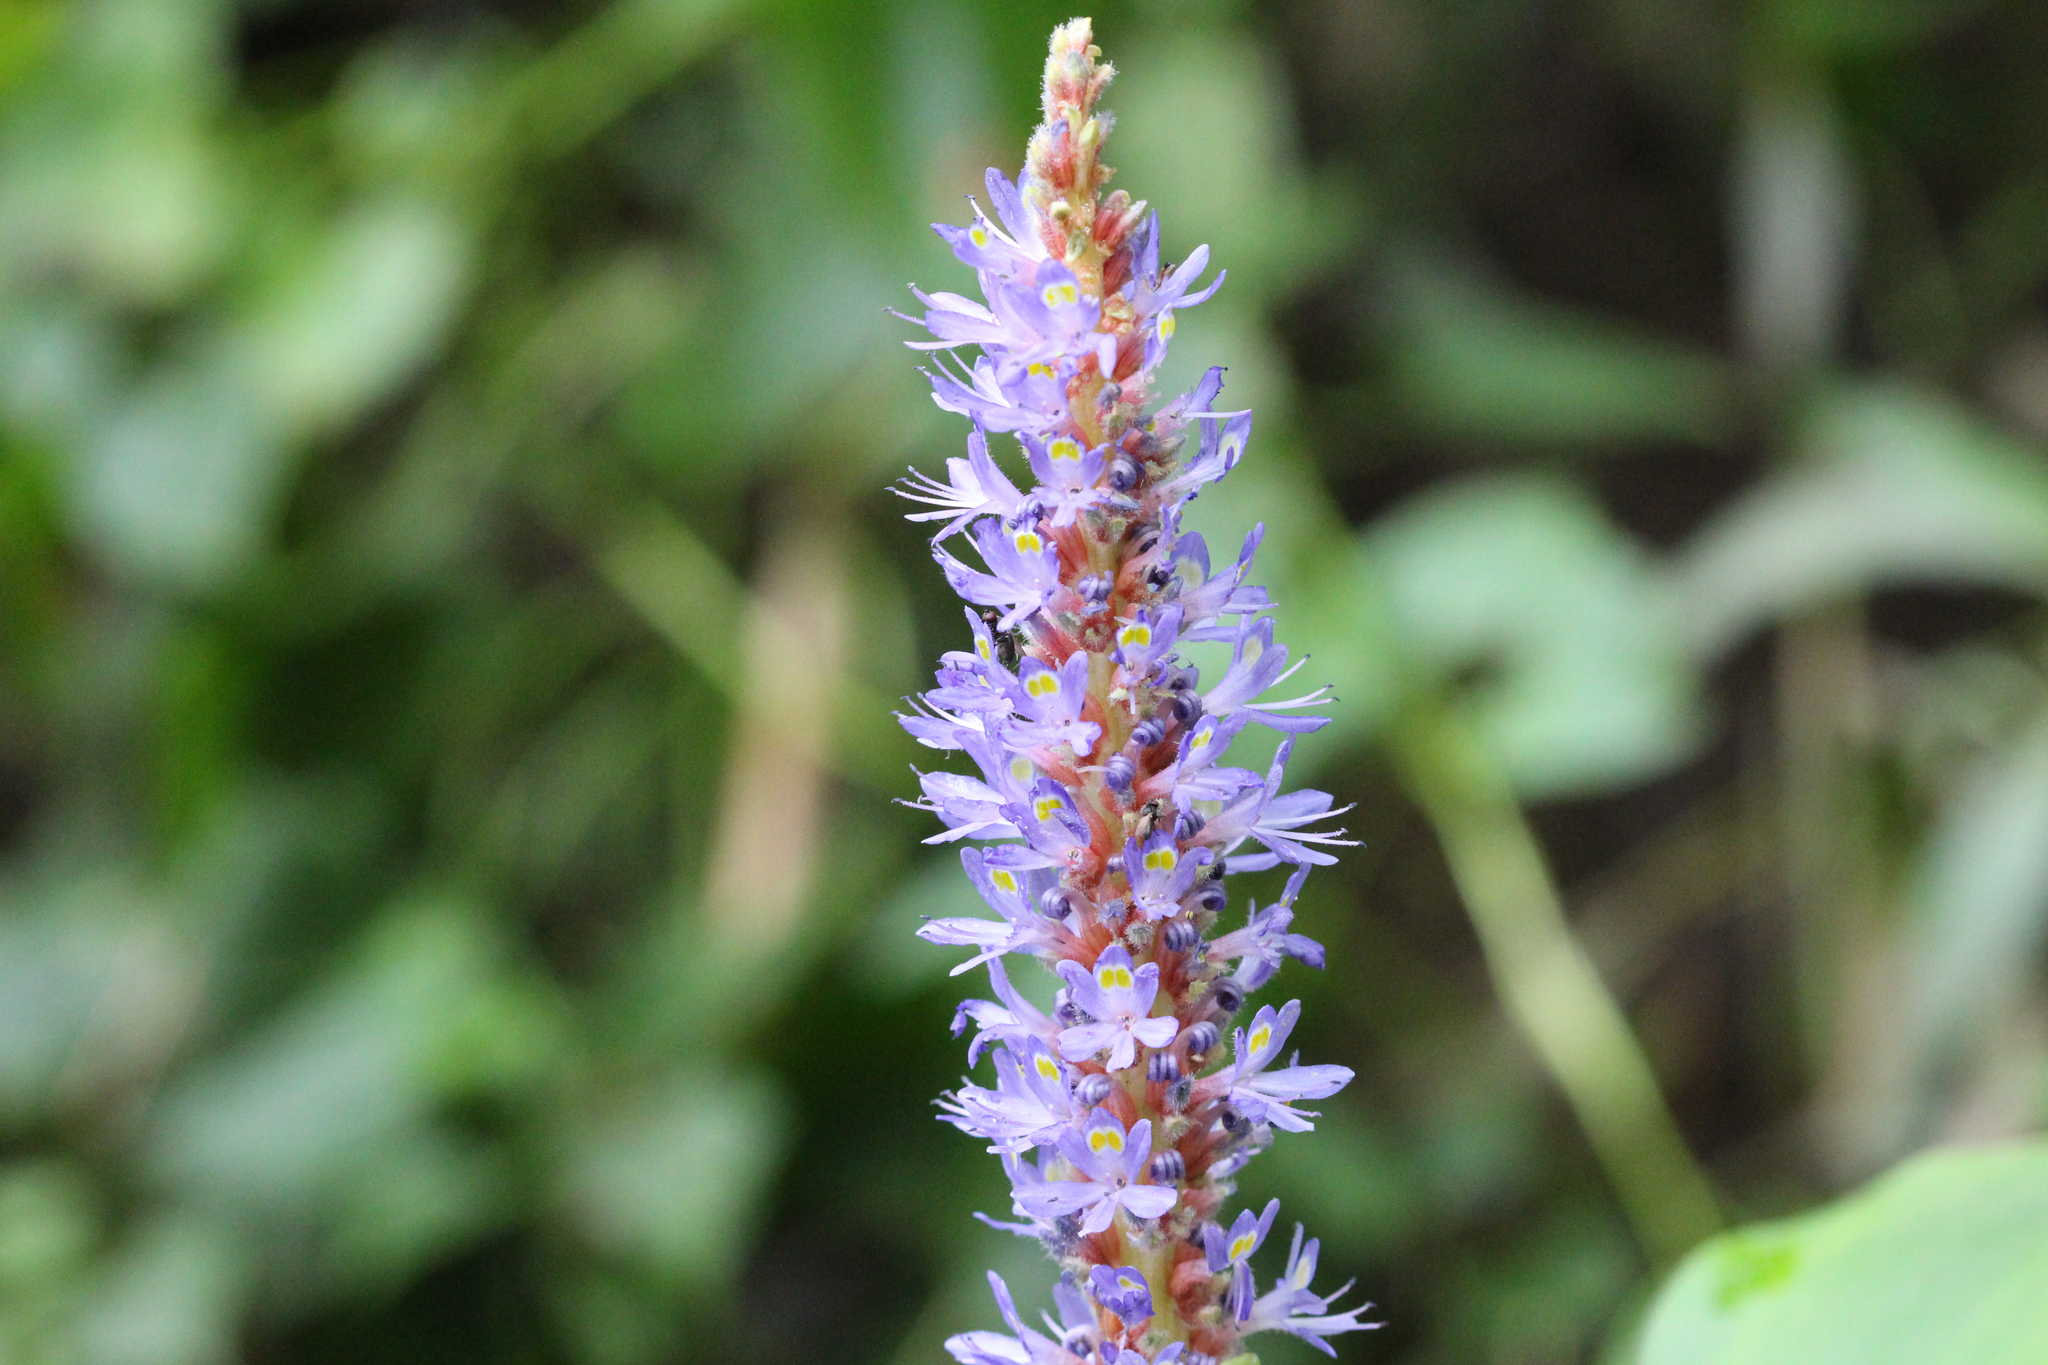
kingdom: Plantae
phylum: Tracheophyta
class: Liliopsida
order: Commelinales
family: Pontederiaceae
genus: Pontederia
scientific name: Pontederia cordata
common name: Pickerelweed
